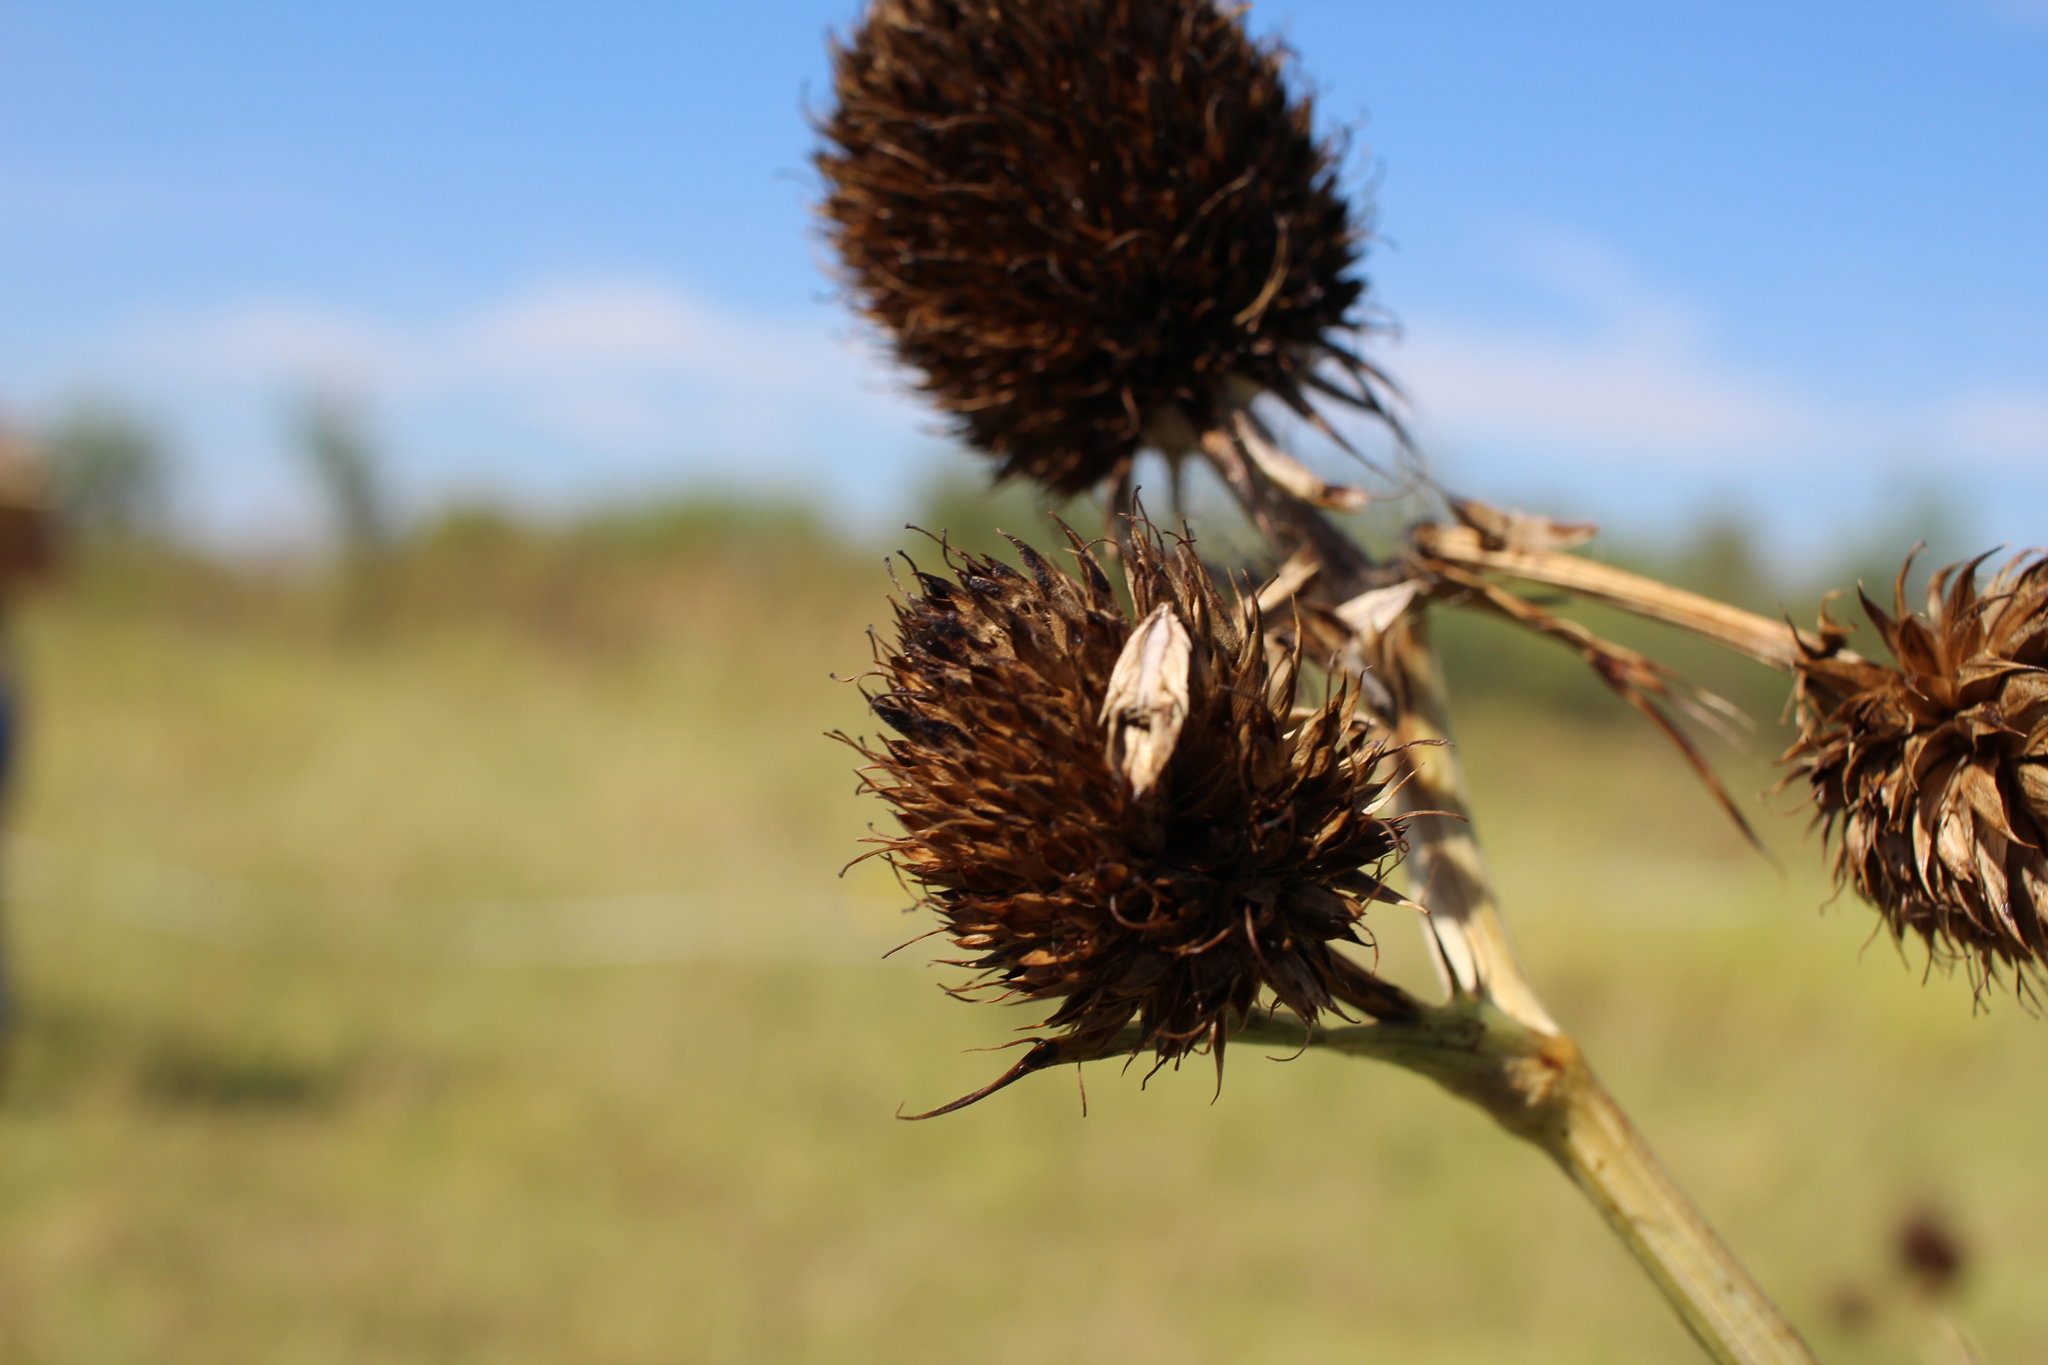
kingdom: Plantae
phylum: Tracheophyta
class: Magnoliopsida
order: Apiales
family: Apiaceae
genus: Eryngium
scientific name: Eryngium yuccifolium
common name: Button eryngo
